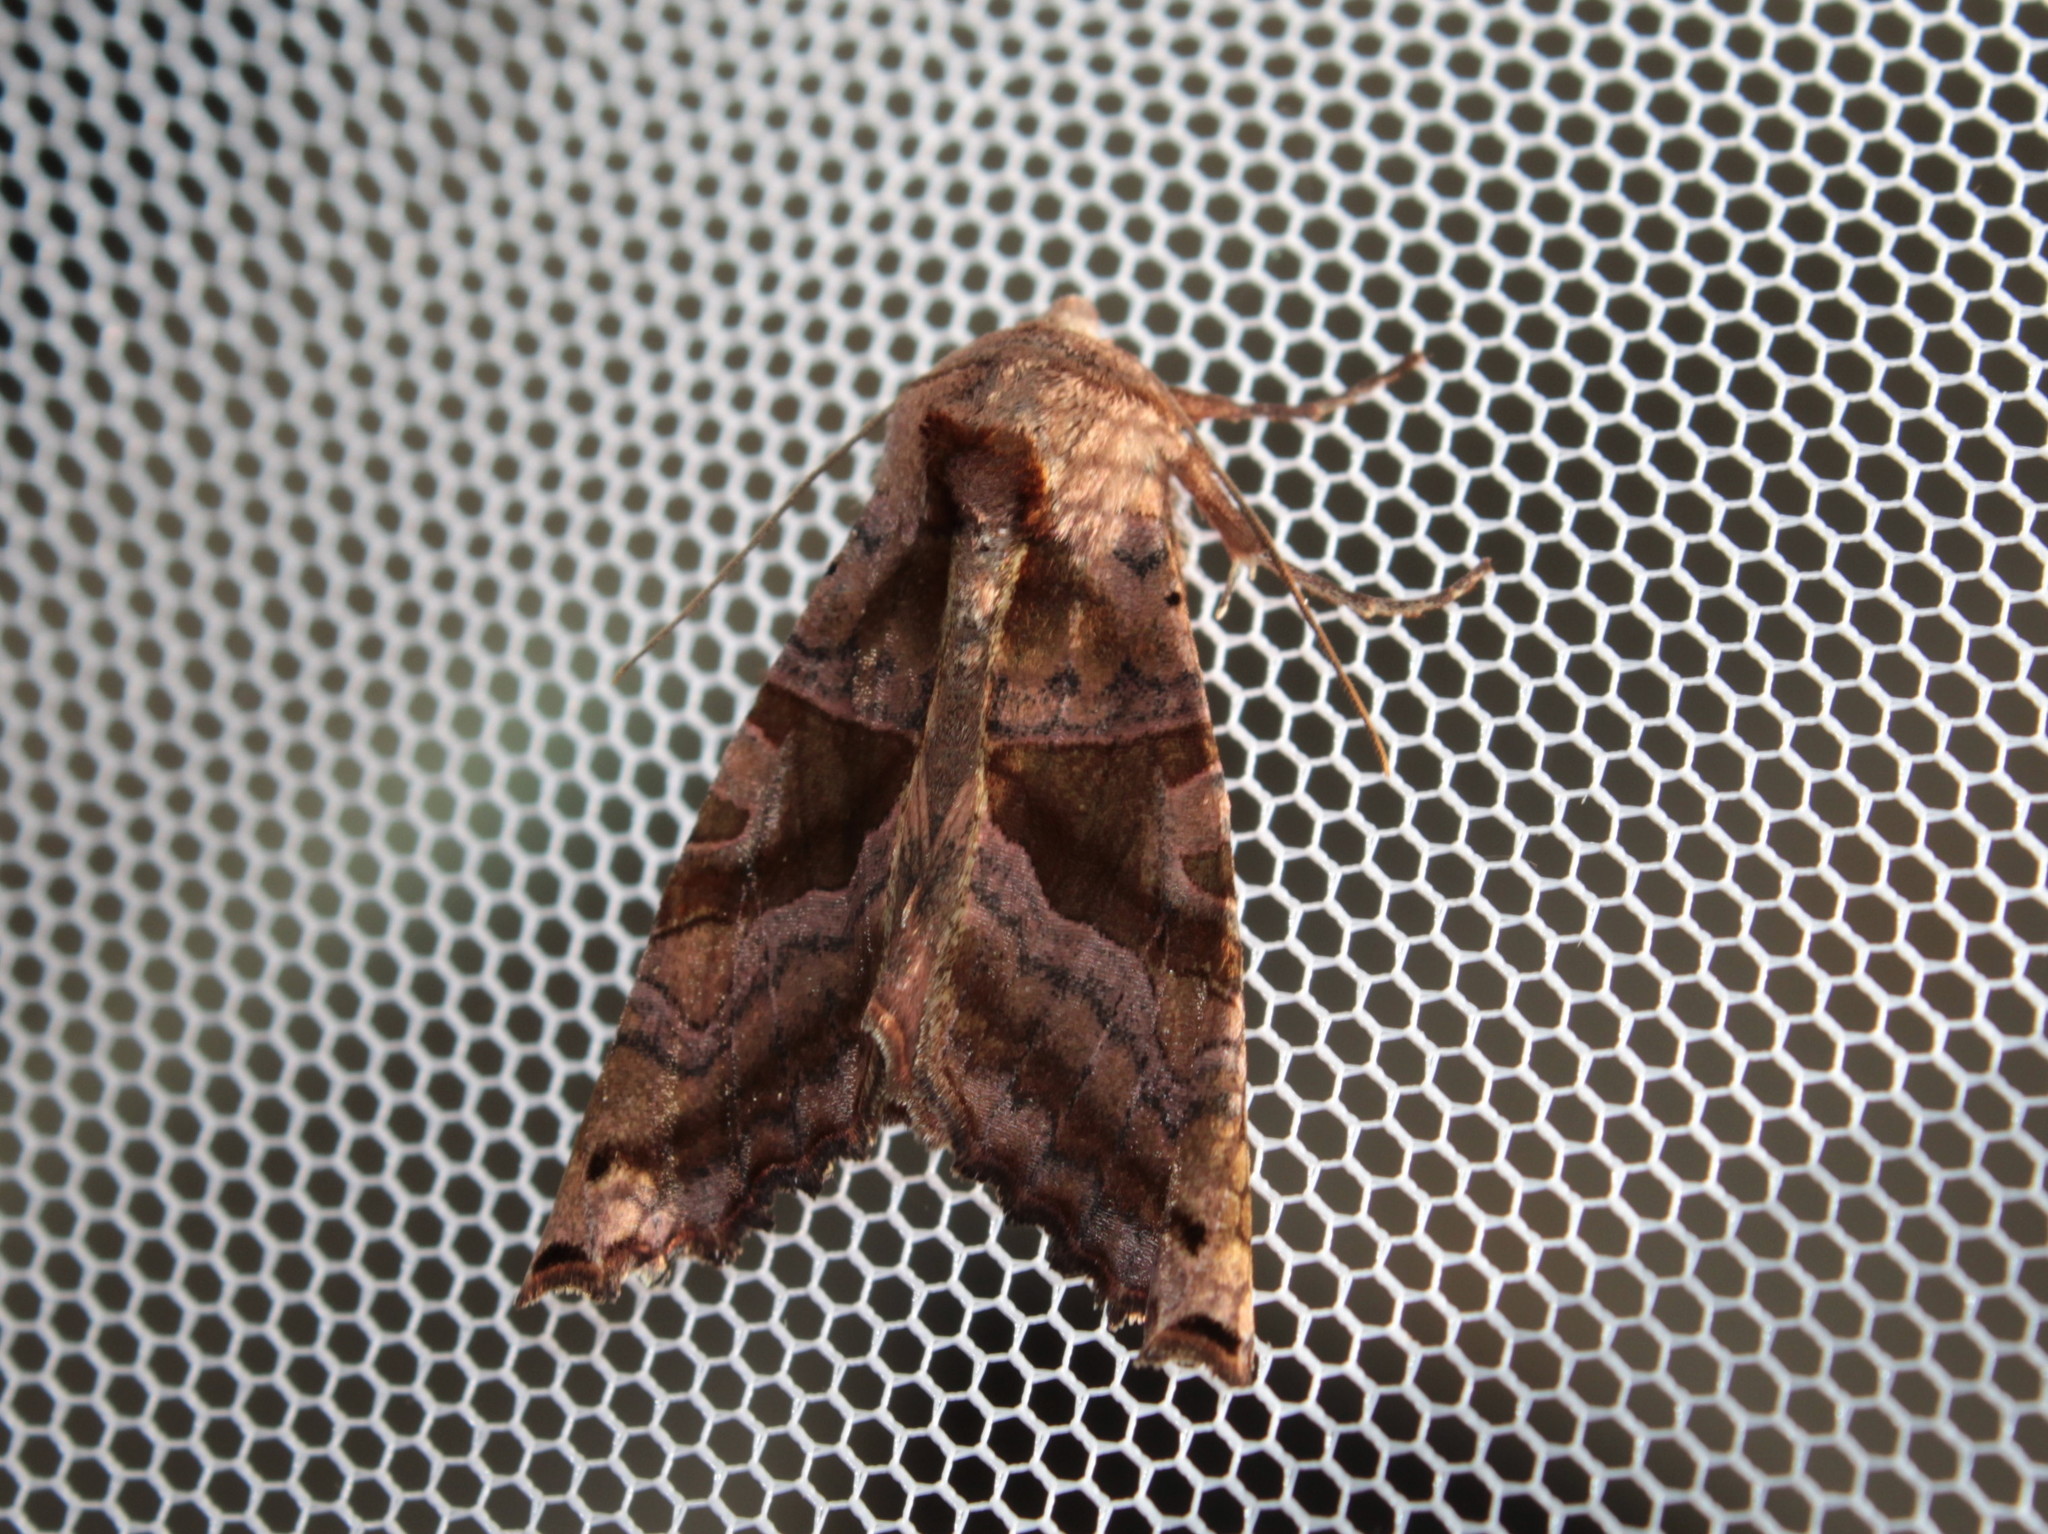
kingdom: Animalia
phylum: Arthropoda
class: Insecta
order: Lepidoptera
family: Noctuidae
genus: Phlogophora
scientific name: Phlogophora periculosa
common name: Brown angle shades
